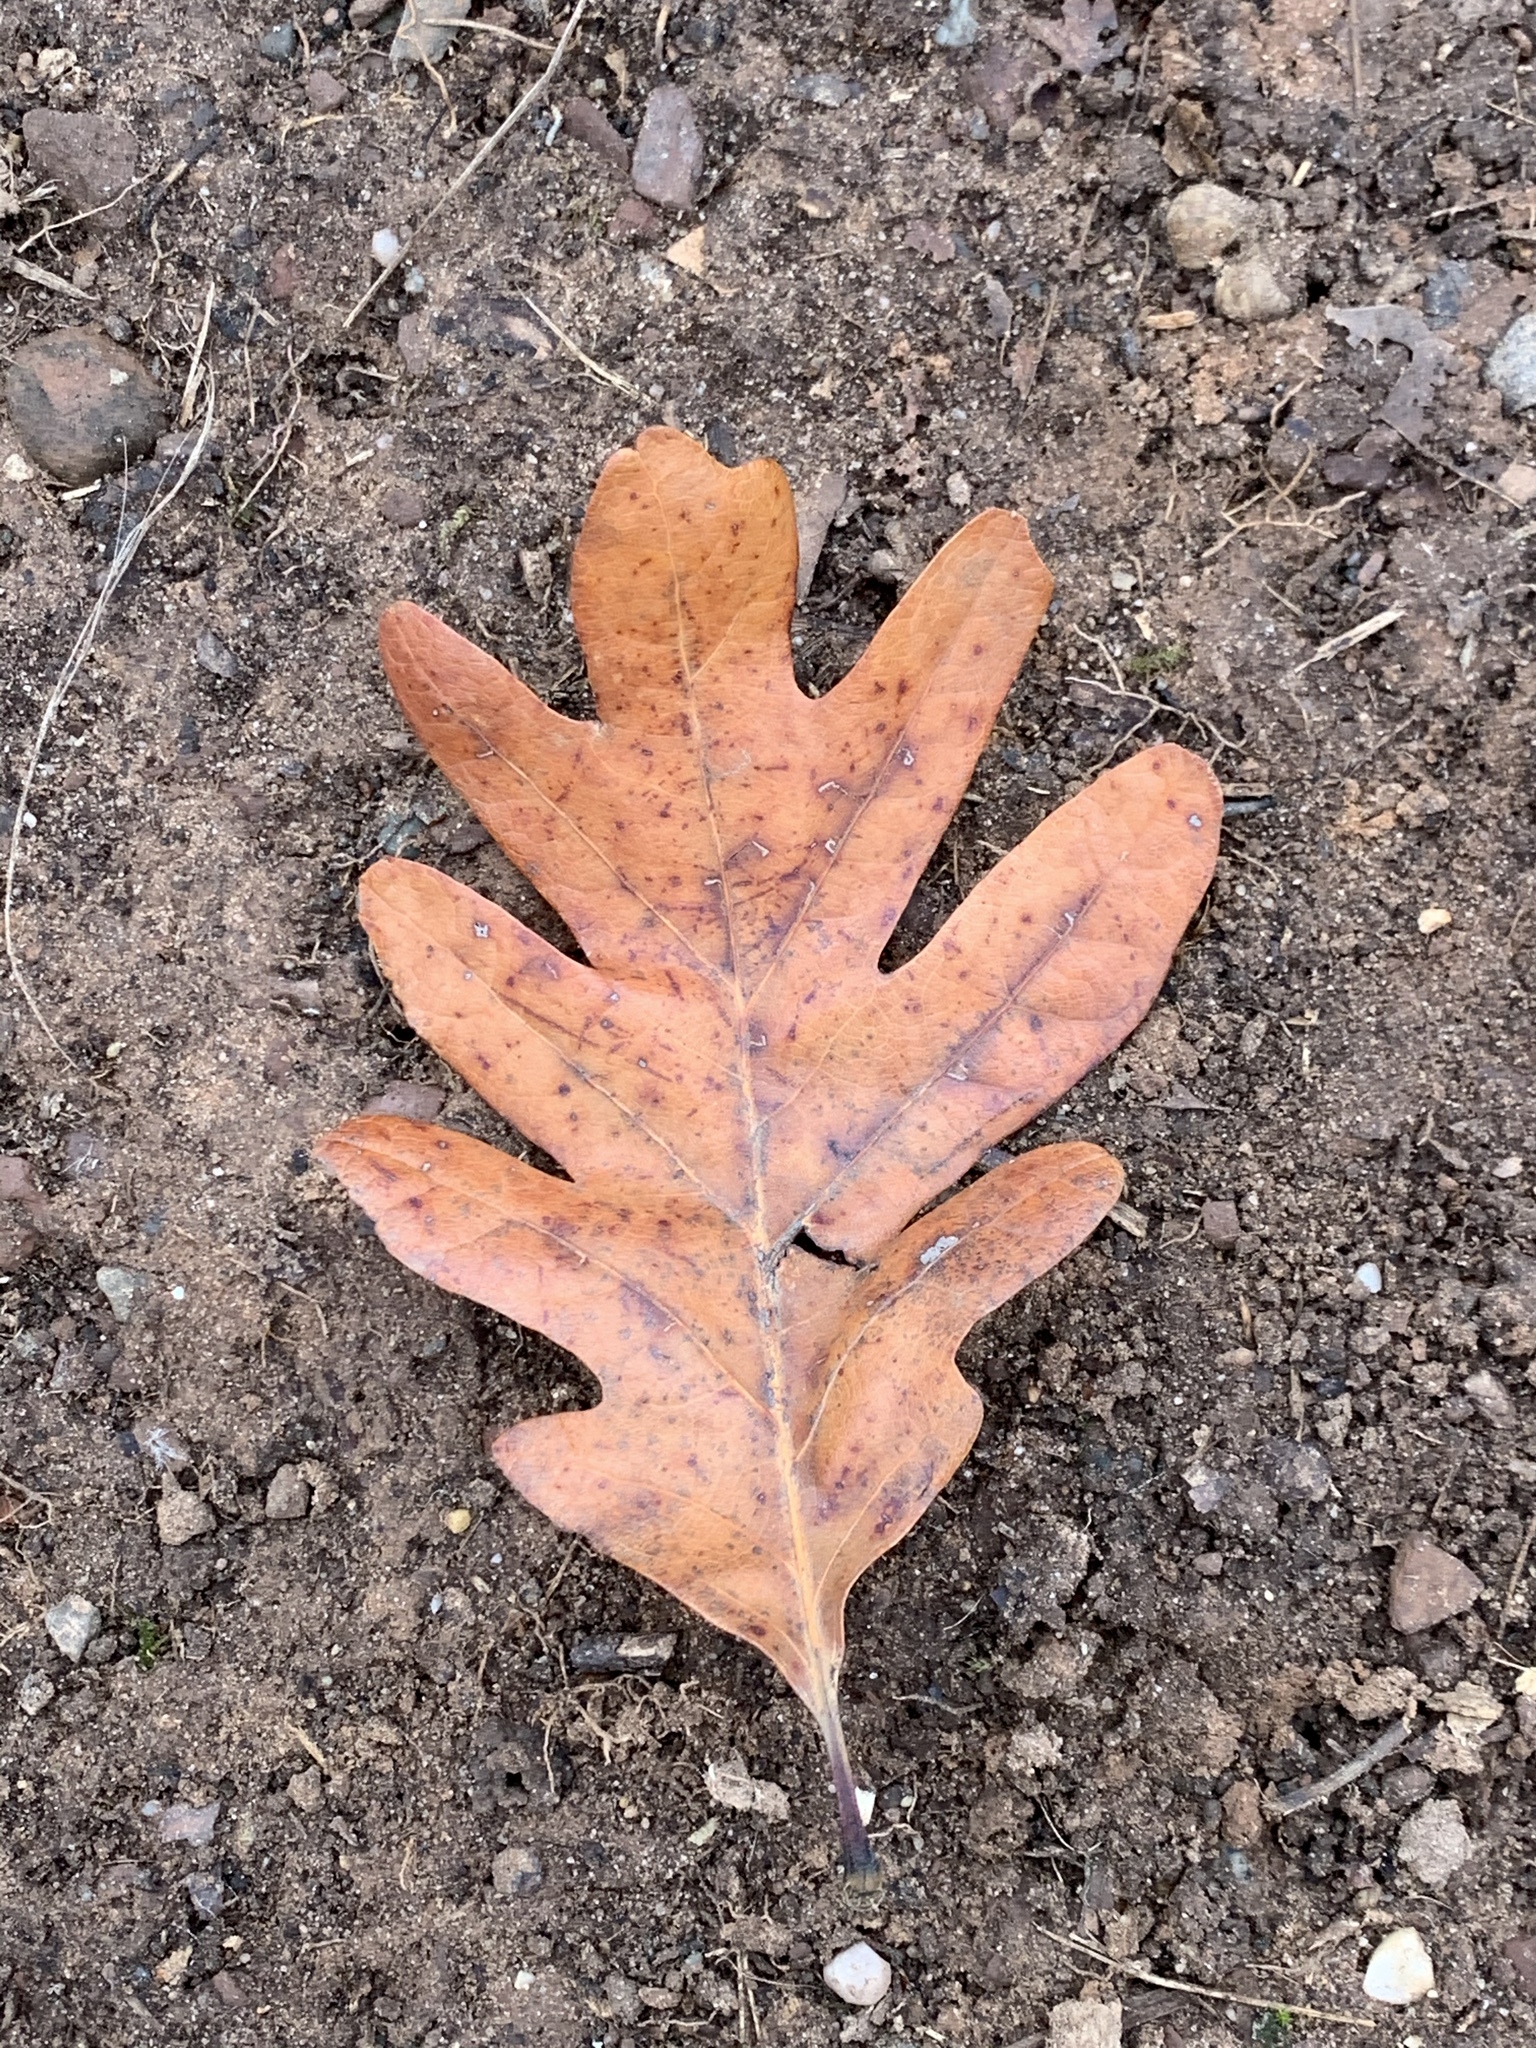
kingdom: Plantae
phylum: Tracheophyta
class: Magnoliopsida
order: Fagales
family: Fagaceae
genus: Quercus
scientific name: Quercus alba
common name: White oak
